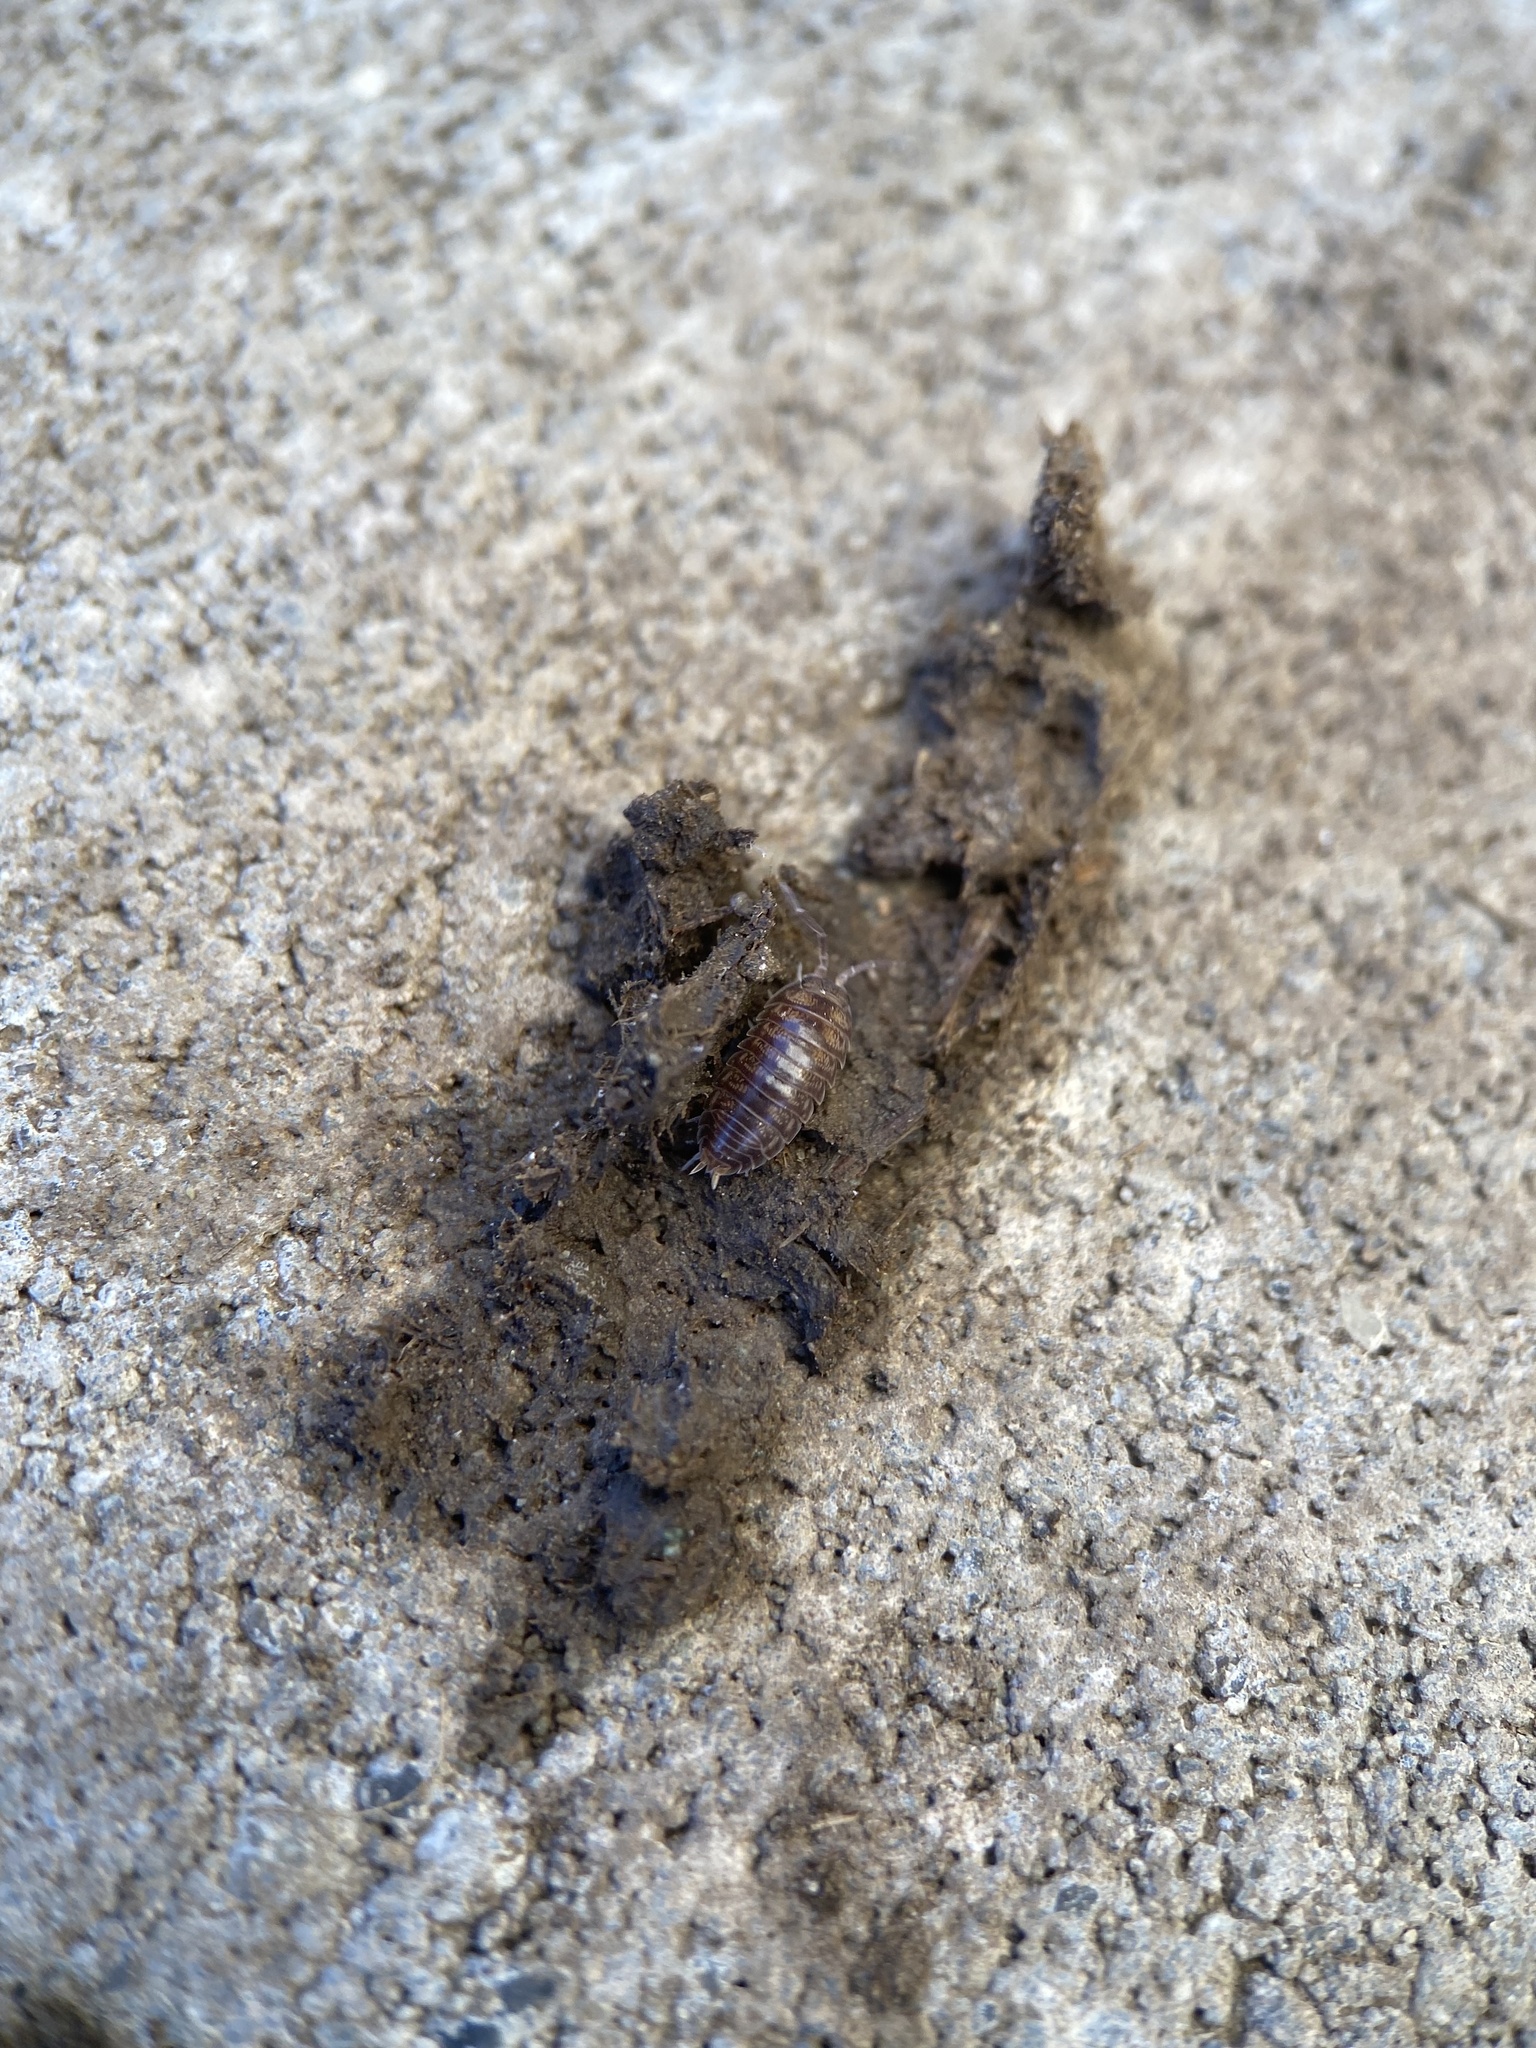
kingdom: Animalia
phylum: Arthropoda
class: Malacostraca
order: Isopoda
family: Cylisticidae
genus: Cylisticus
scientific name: Cylisticus convexus
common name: Curly woodlouse
